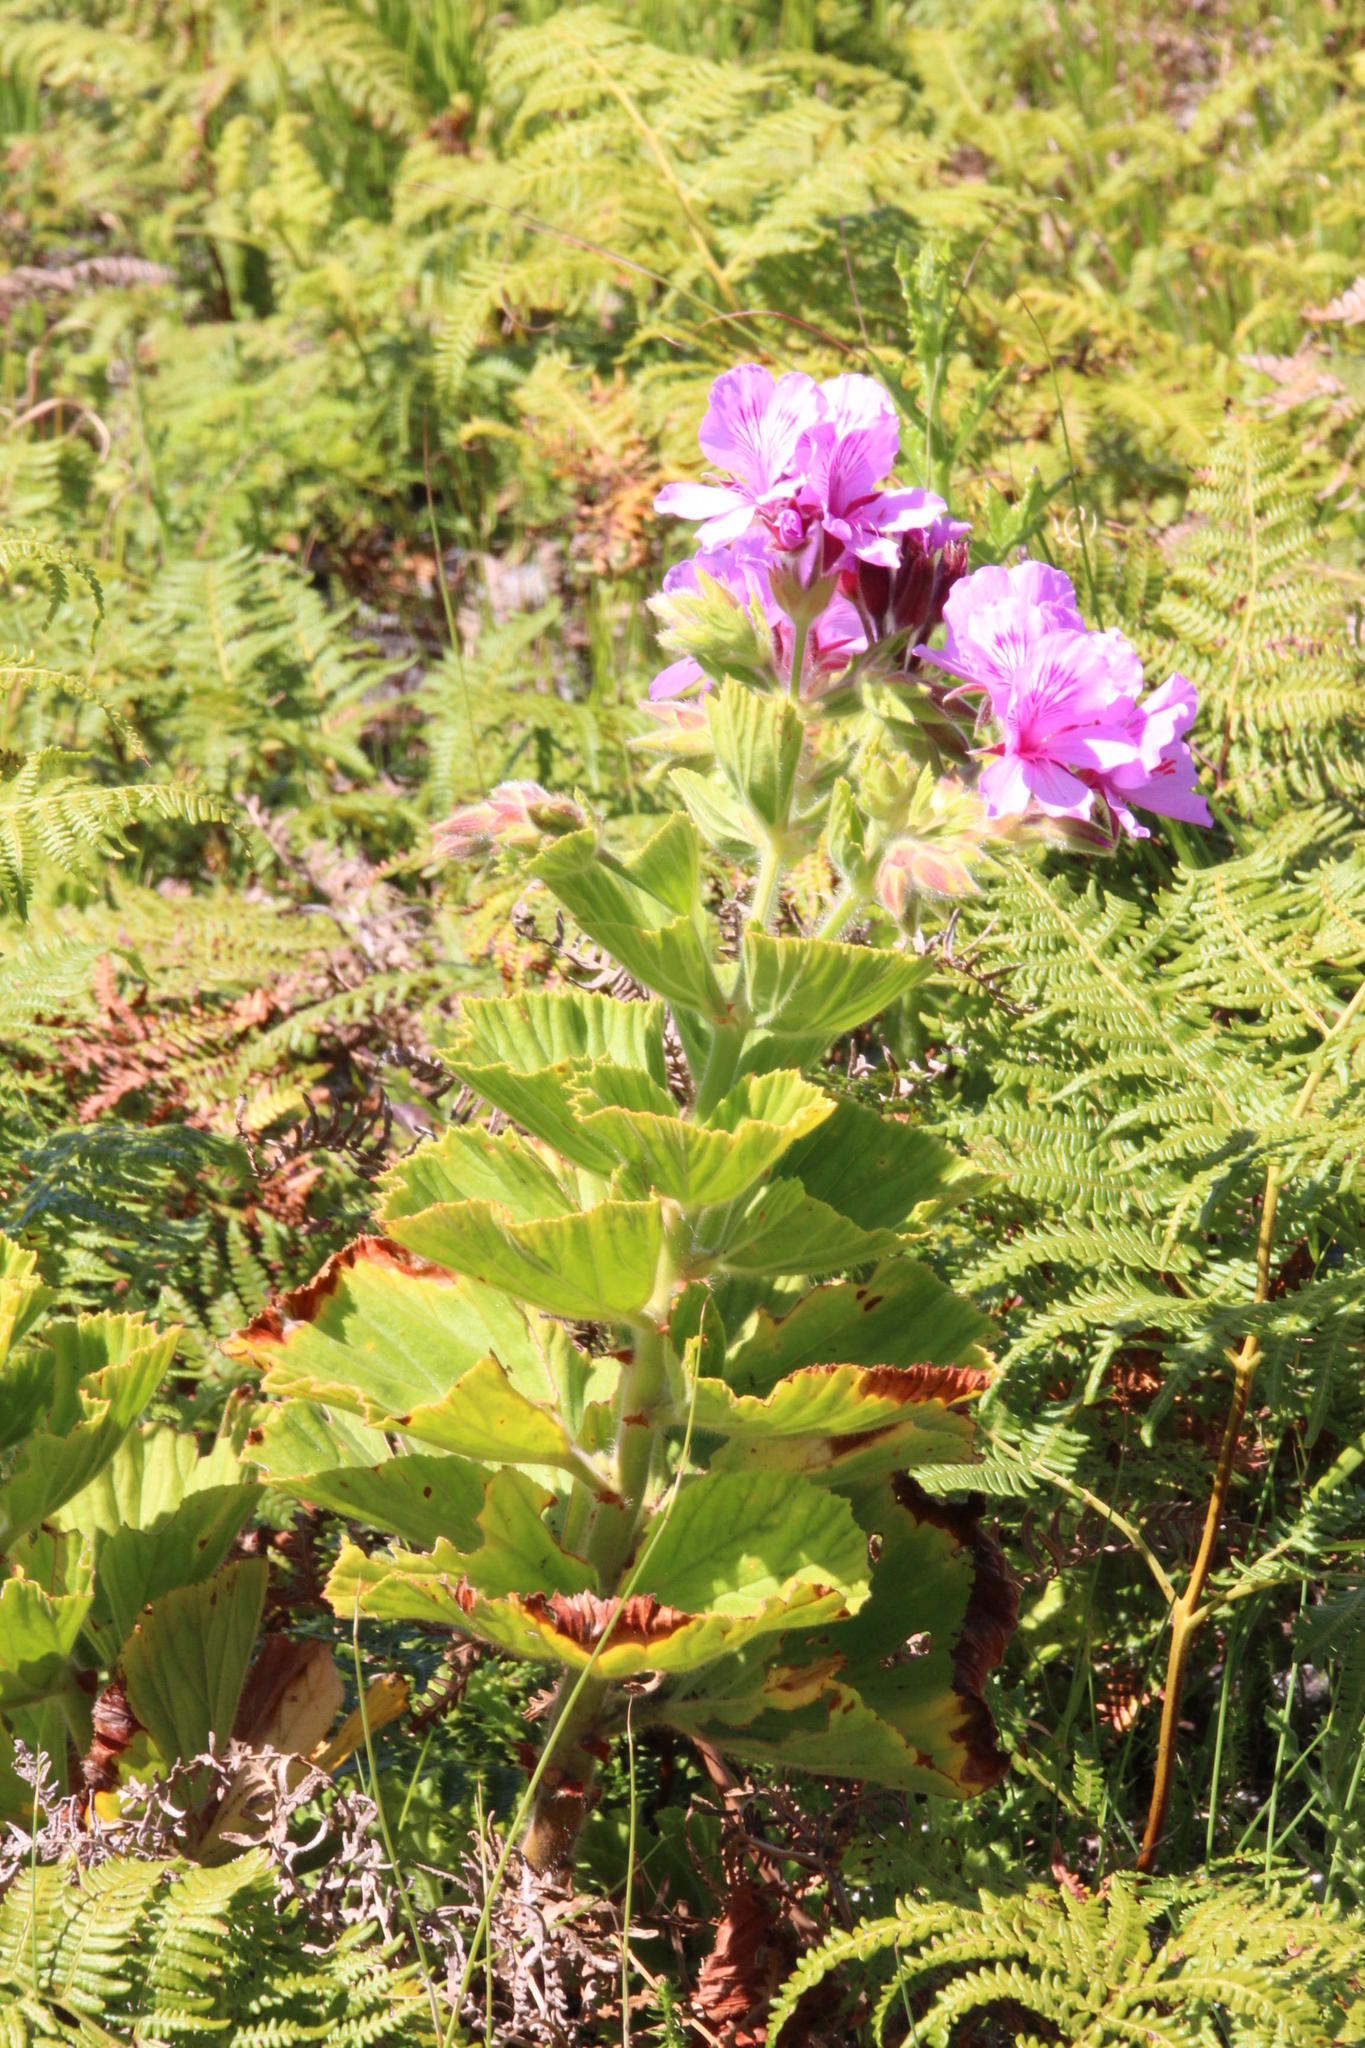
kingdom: Plantae
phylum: Tracheophyta
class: Magnoliopsida
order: Geraniales
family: Geraniaceae
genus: Pelargonium
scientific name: Pelargonium cucullatum
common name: Tree pelargonium
